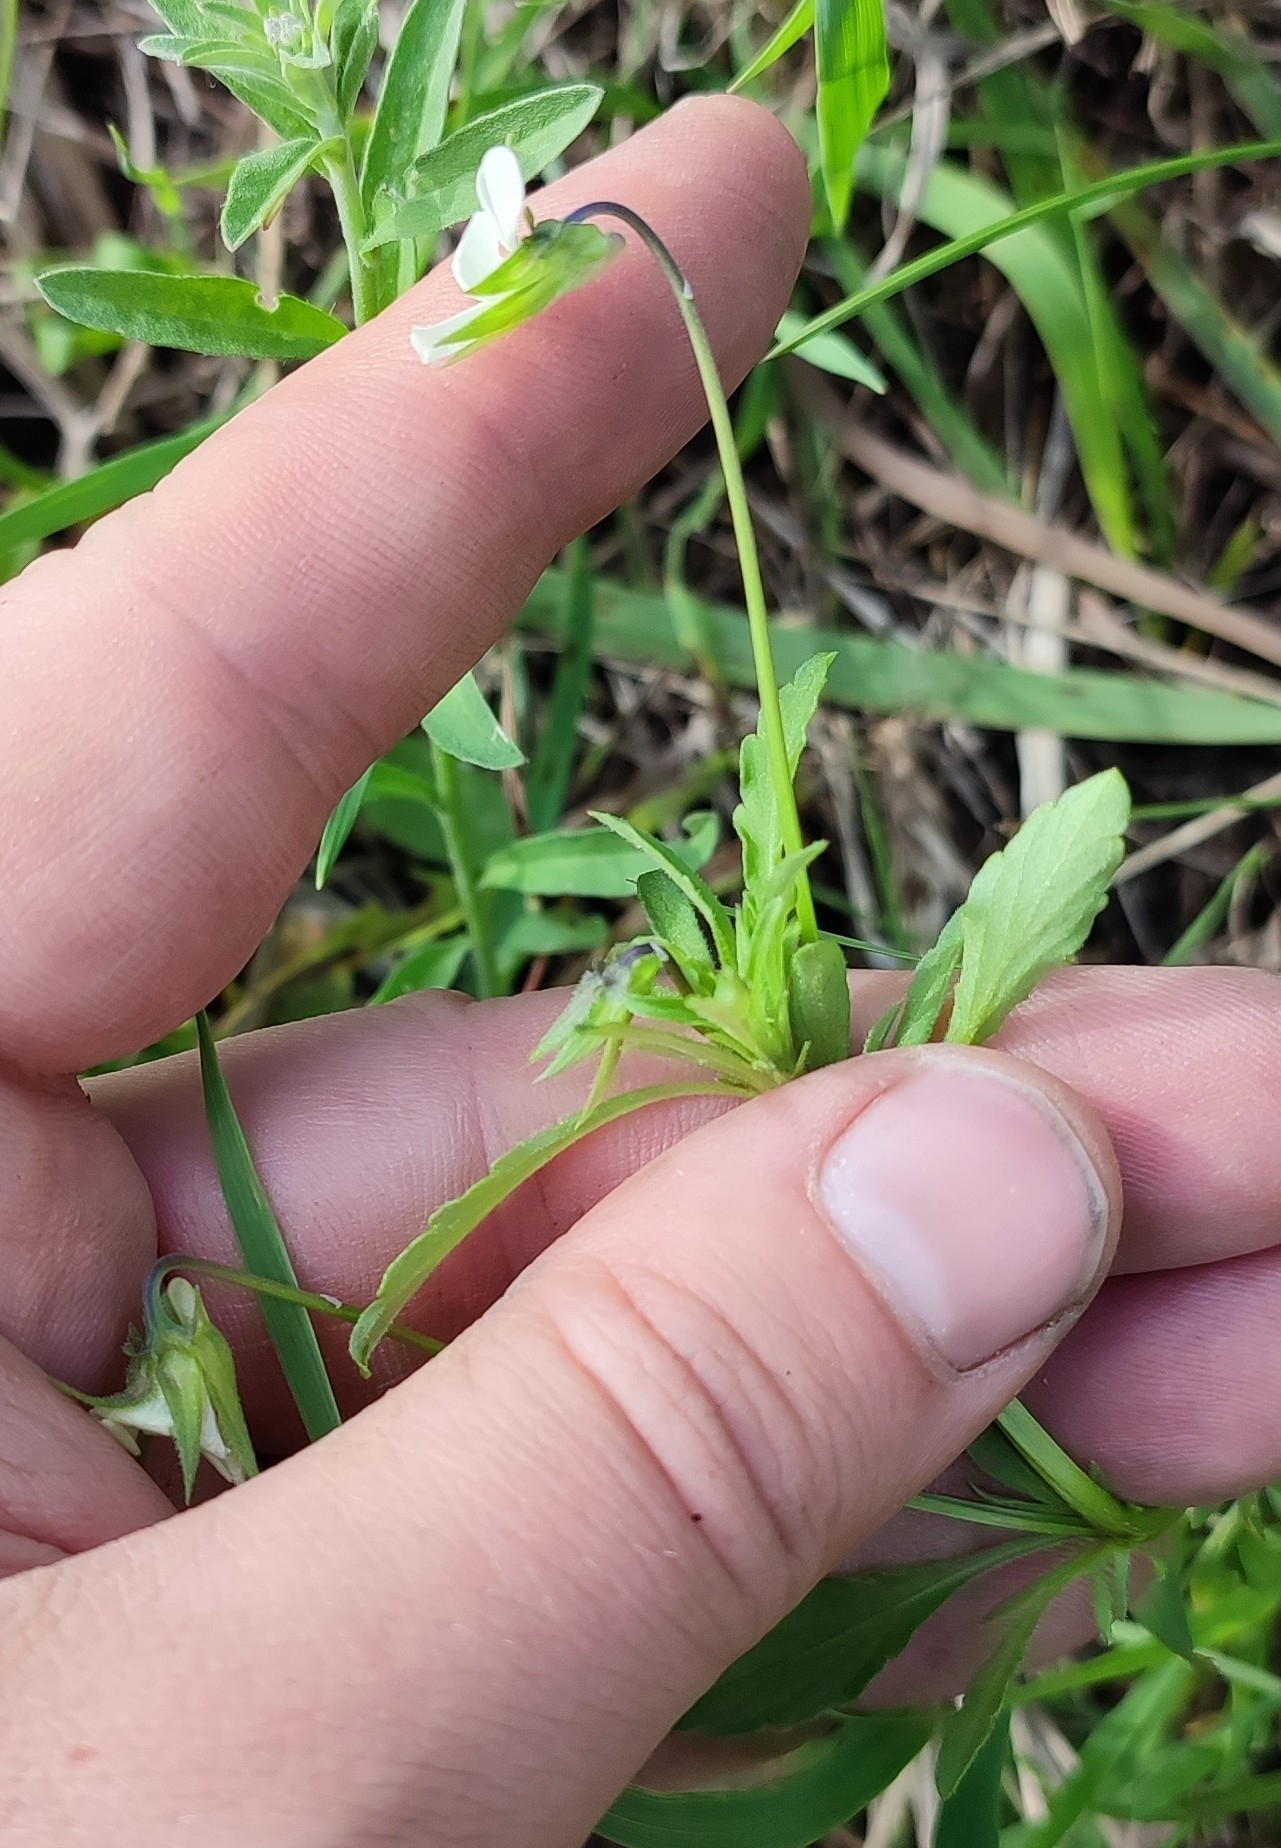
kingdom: Plantae
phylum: Tracheophyta
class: Magnoliopsida
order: Malpighiales
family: Violaceae
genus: Viola
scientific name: Viola arvensis
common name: Field pansy
